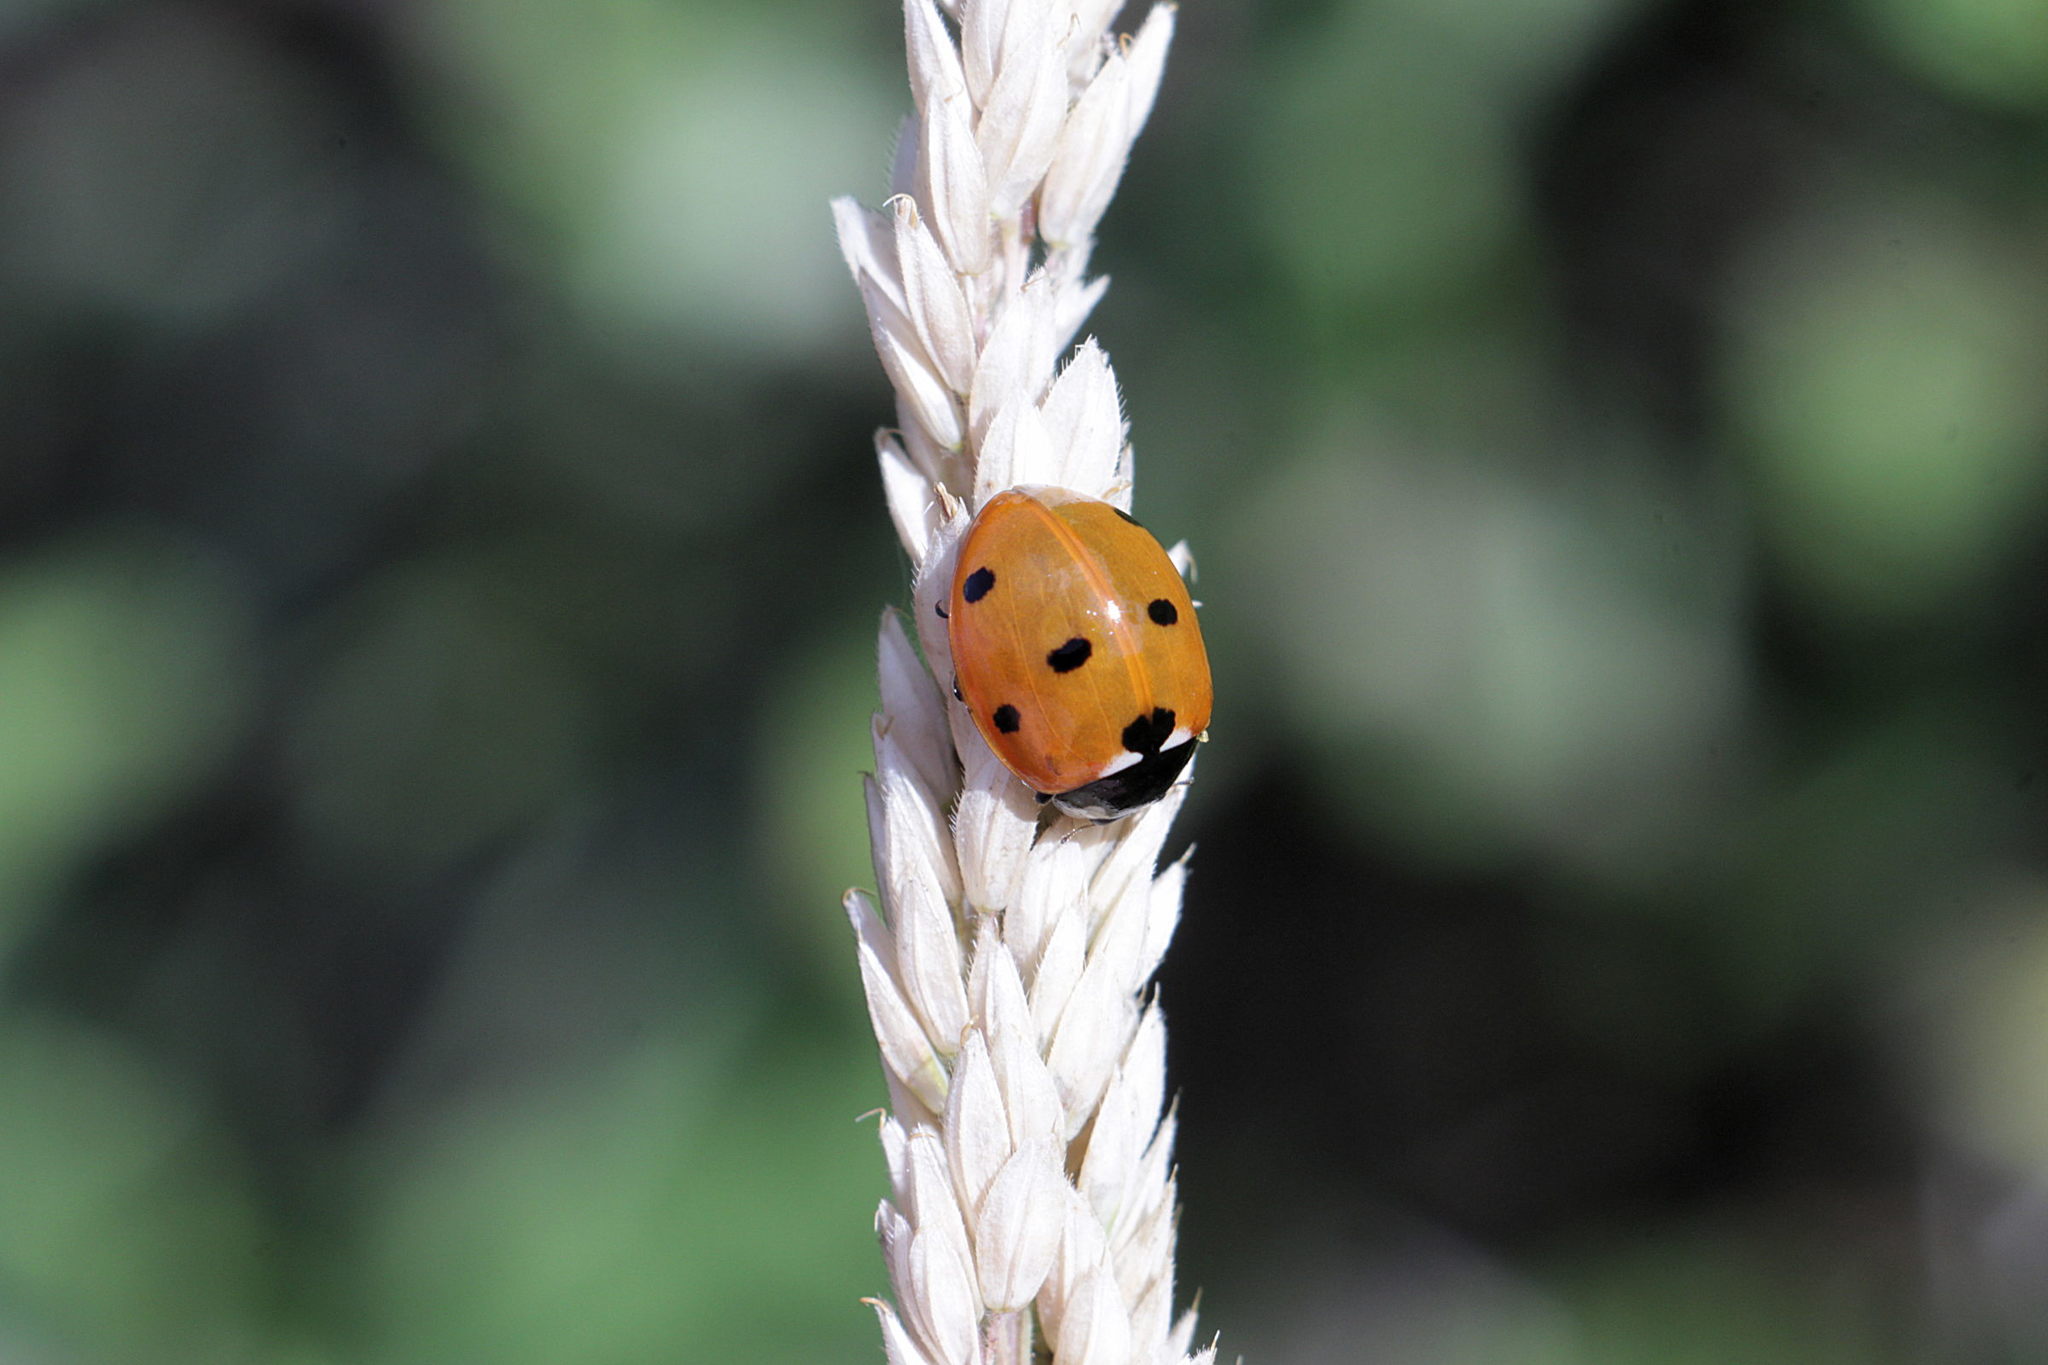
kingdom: Animalia
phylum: Arthropoda
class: Insecta
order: Coleoptera
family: Coccinellidae
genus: Coccinella
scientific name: Coccinella septempunctata
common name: Sevenspotted lady beetle
